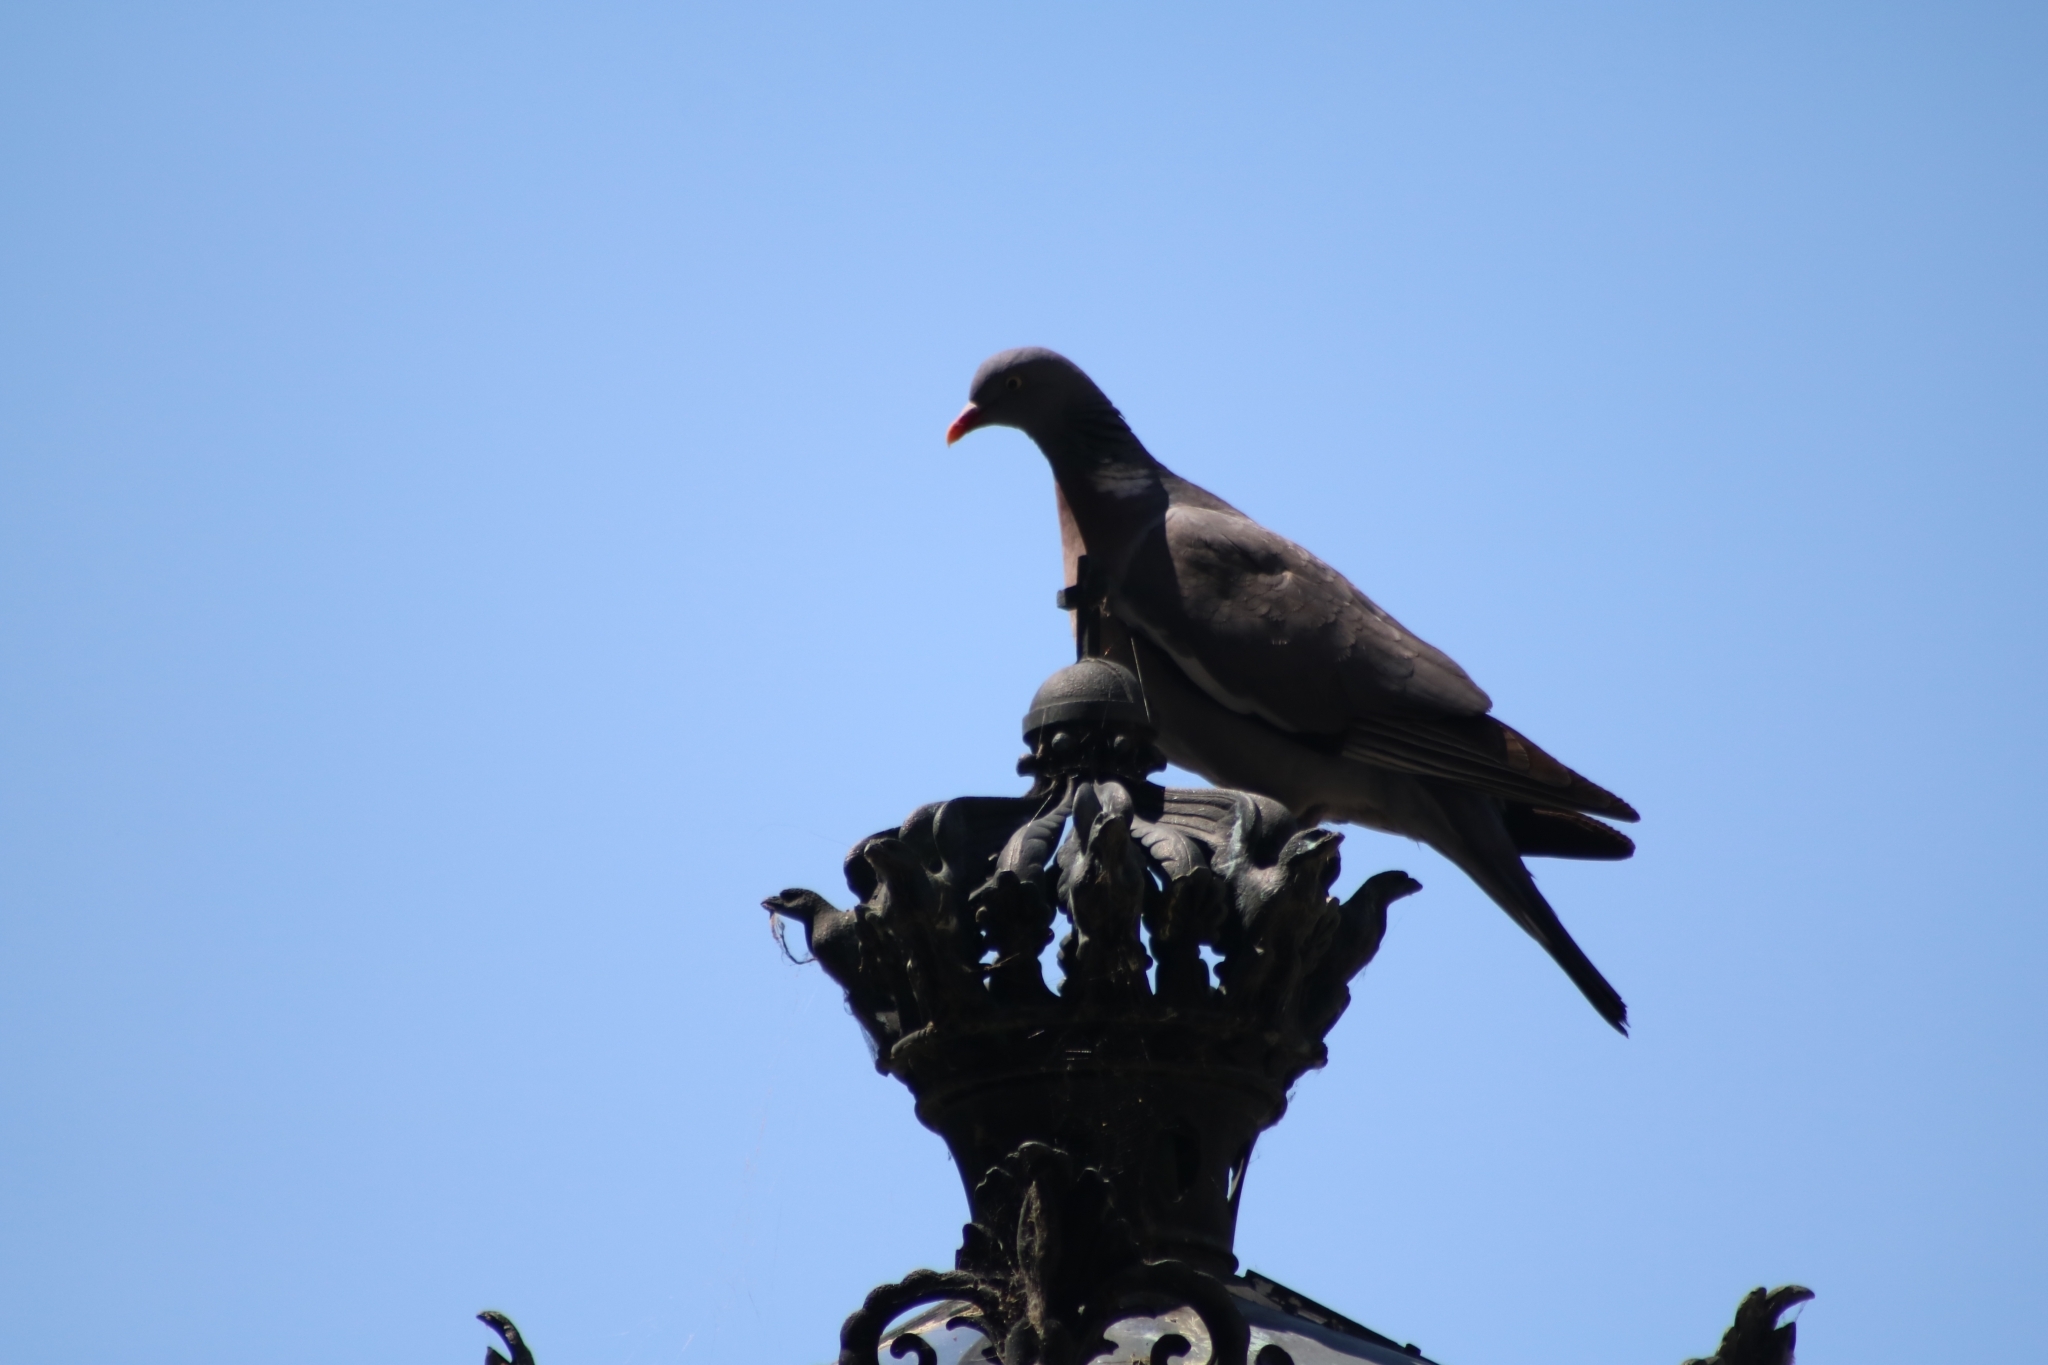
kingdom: Animalia
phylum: Chordata
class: Aves
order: Columbiformes
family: Columbidae
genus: Columba
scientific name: Columba palumbus
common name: Common wood pigeon
